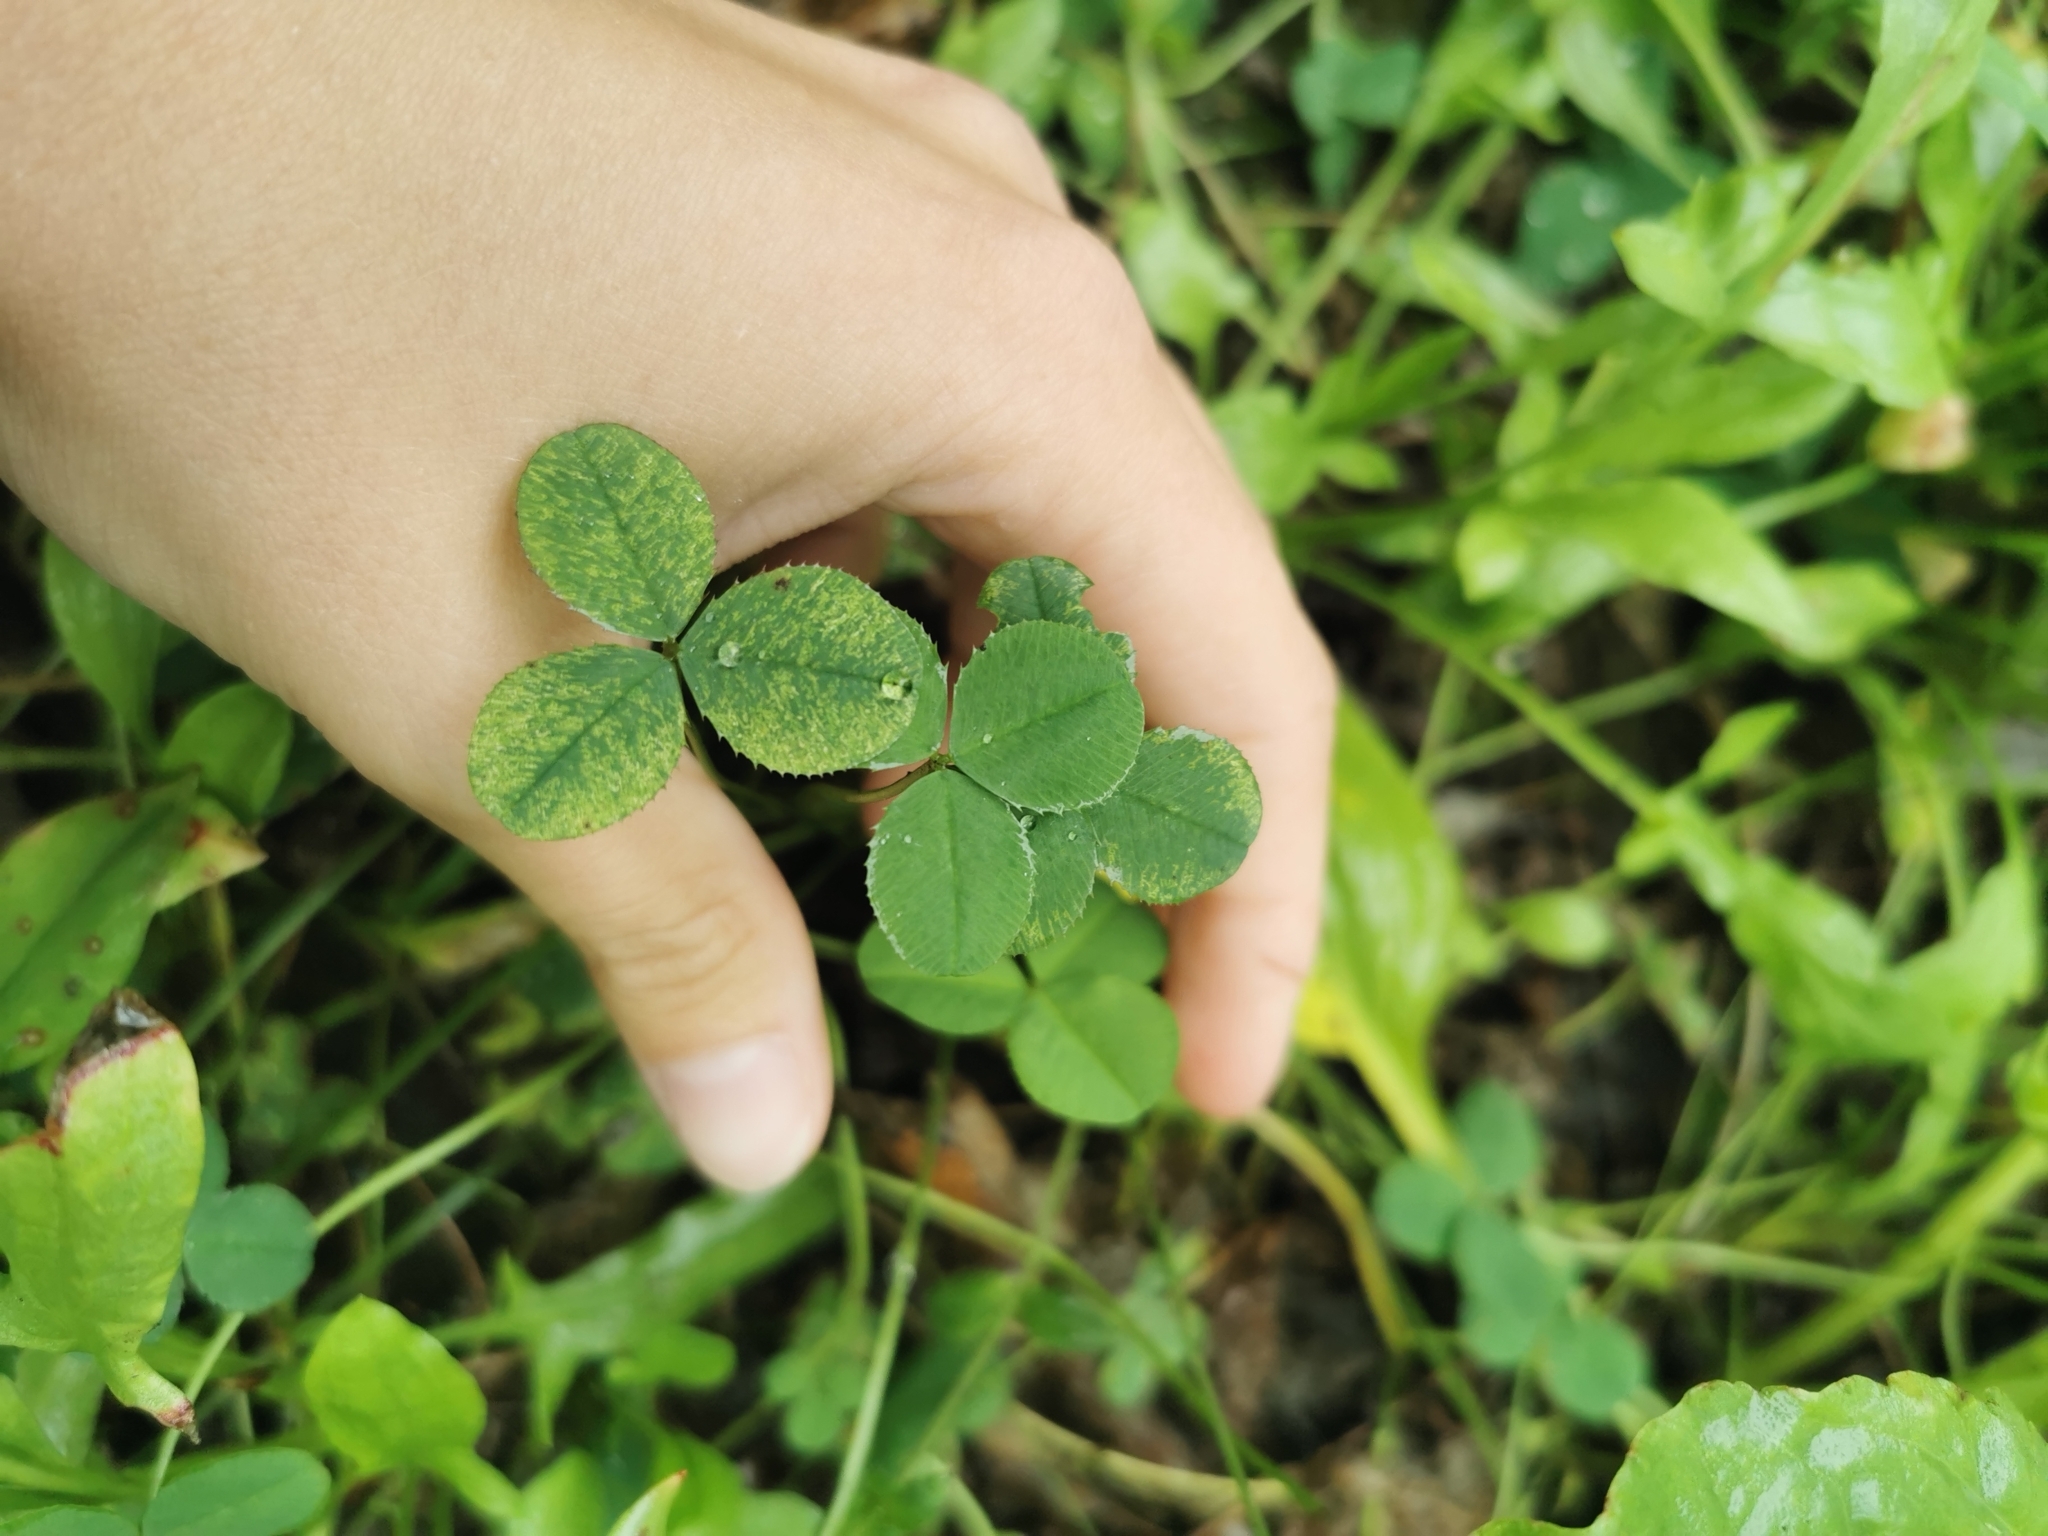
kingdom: Plantae
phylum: Tracheophyta
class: Magnoliopsida
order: Fabales
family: Fabaceae
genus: Trifolium
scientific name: Trifolium repens
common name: White clover
